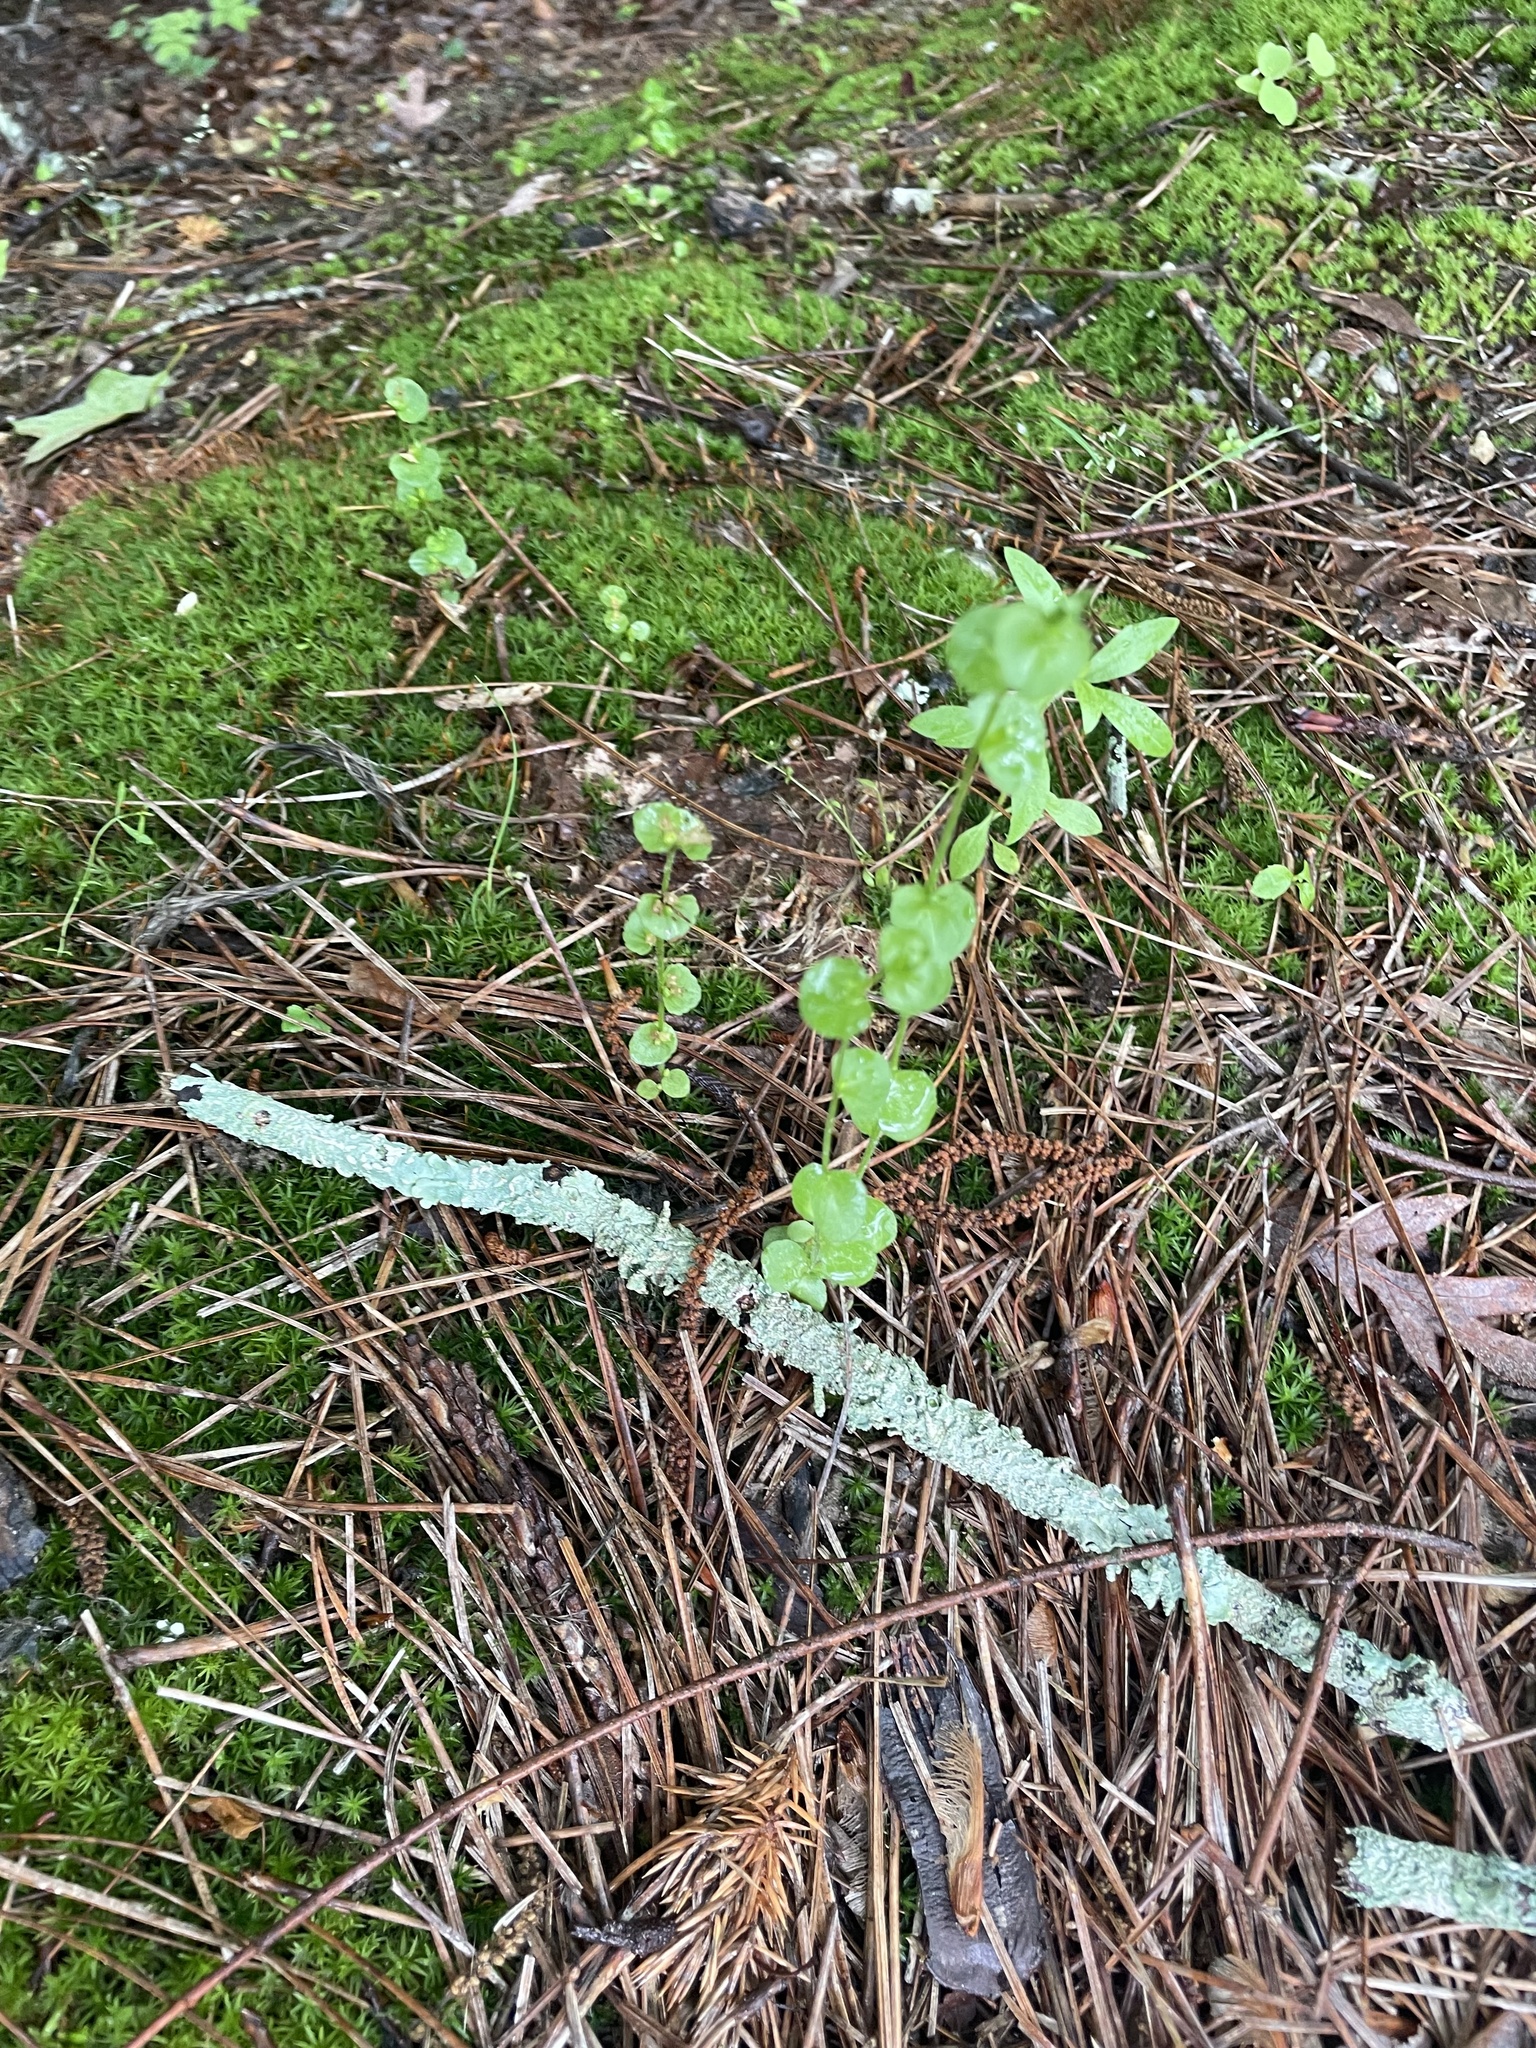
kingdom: Plantae
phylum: Tracheophyta
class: Magnoliopsida
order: Asterales
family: Campanulaceae
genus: Triodanis
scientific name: Triodanis perfoliata
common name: Clasping venus' looking-glass
